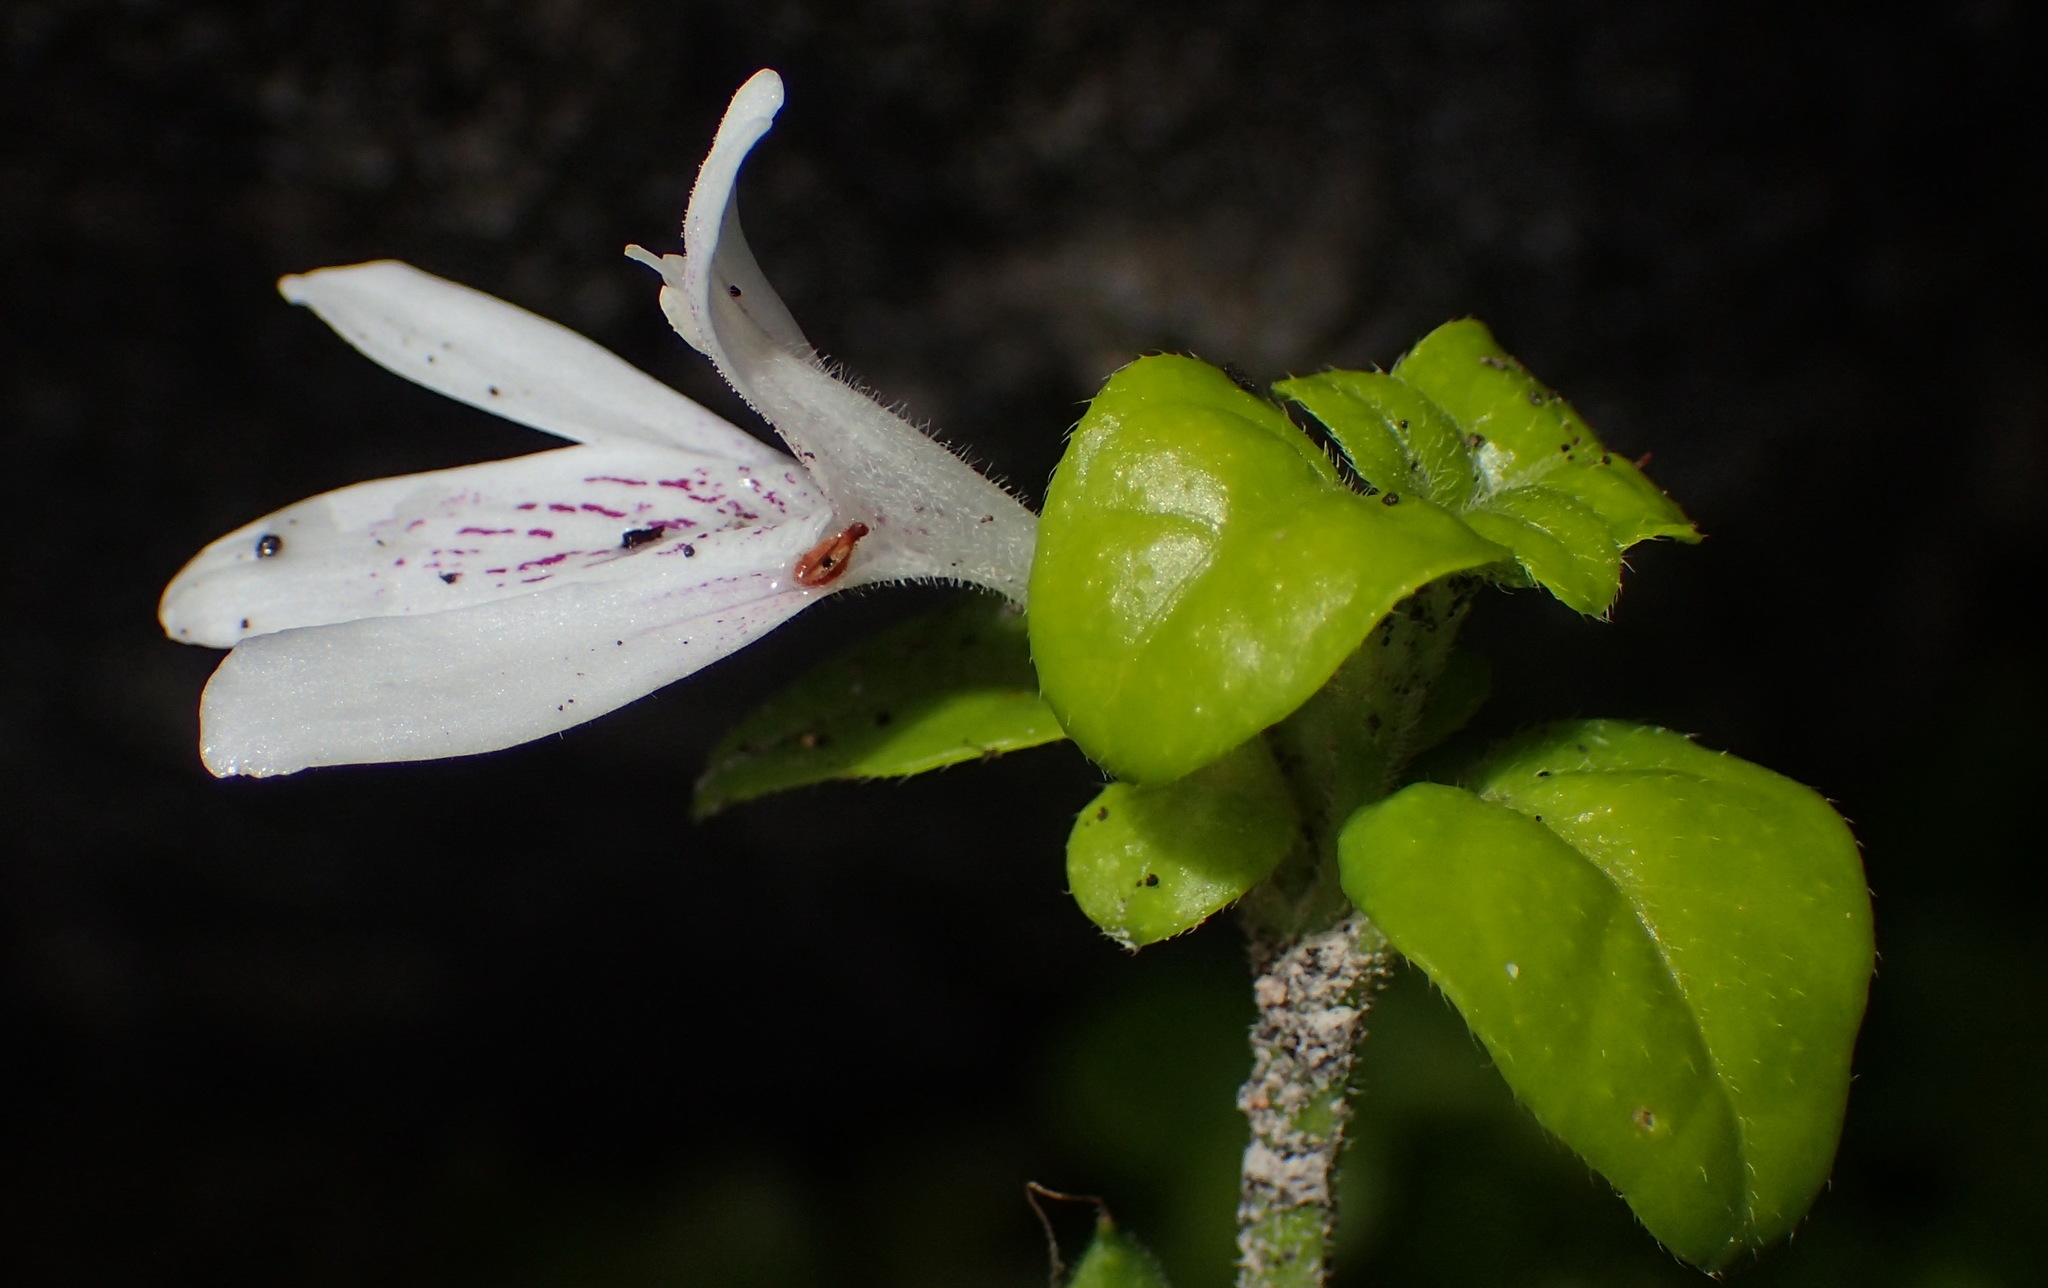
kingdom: Plantae
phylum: Tracheophyta
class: Magnoliopsida
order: Lamiales
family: Acanthaceae
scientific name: Acanthaceae
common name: Acanthaceae
